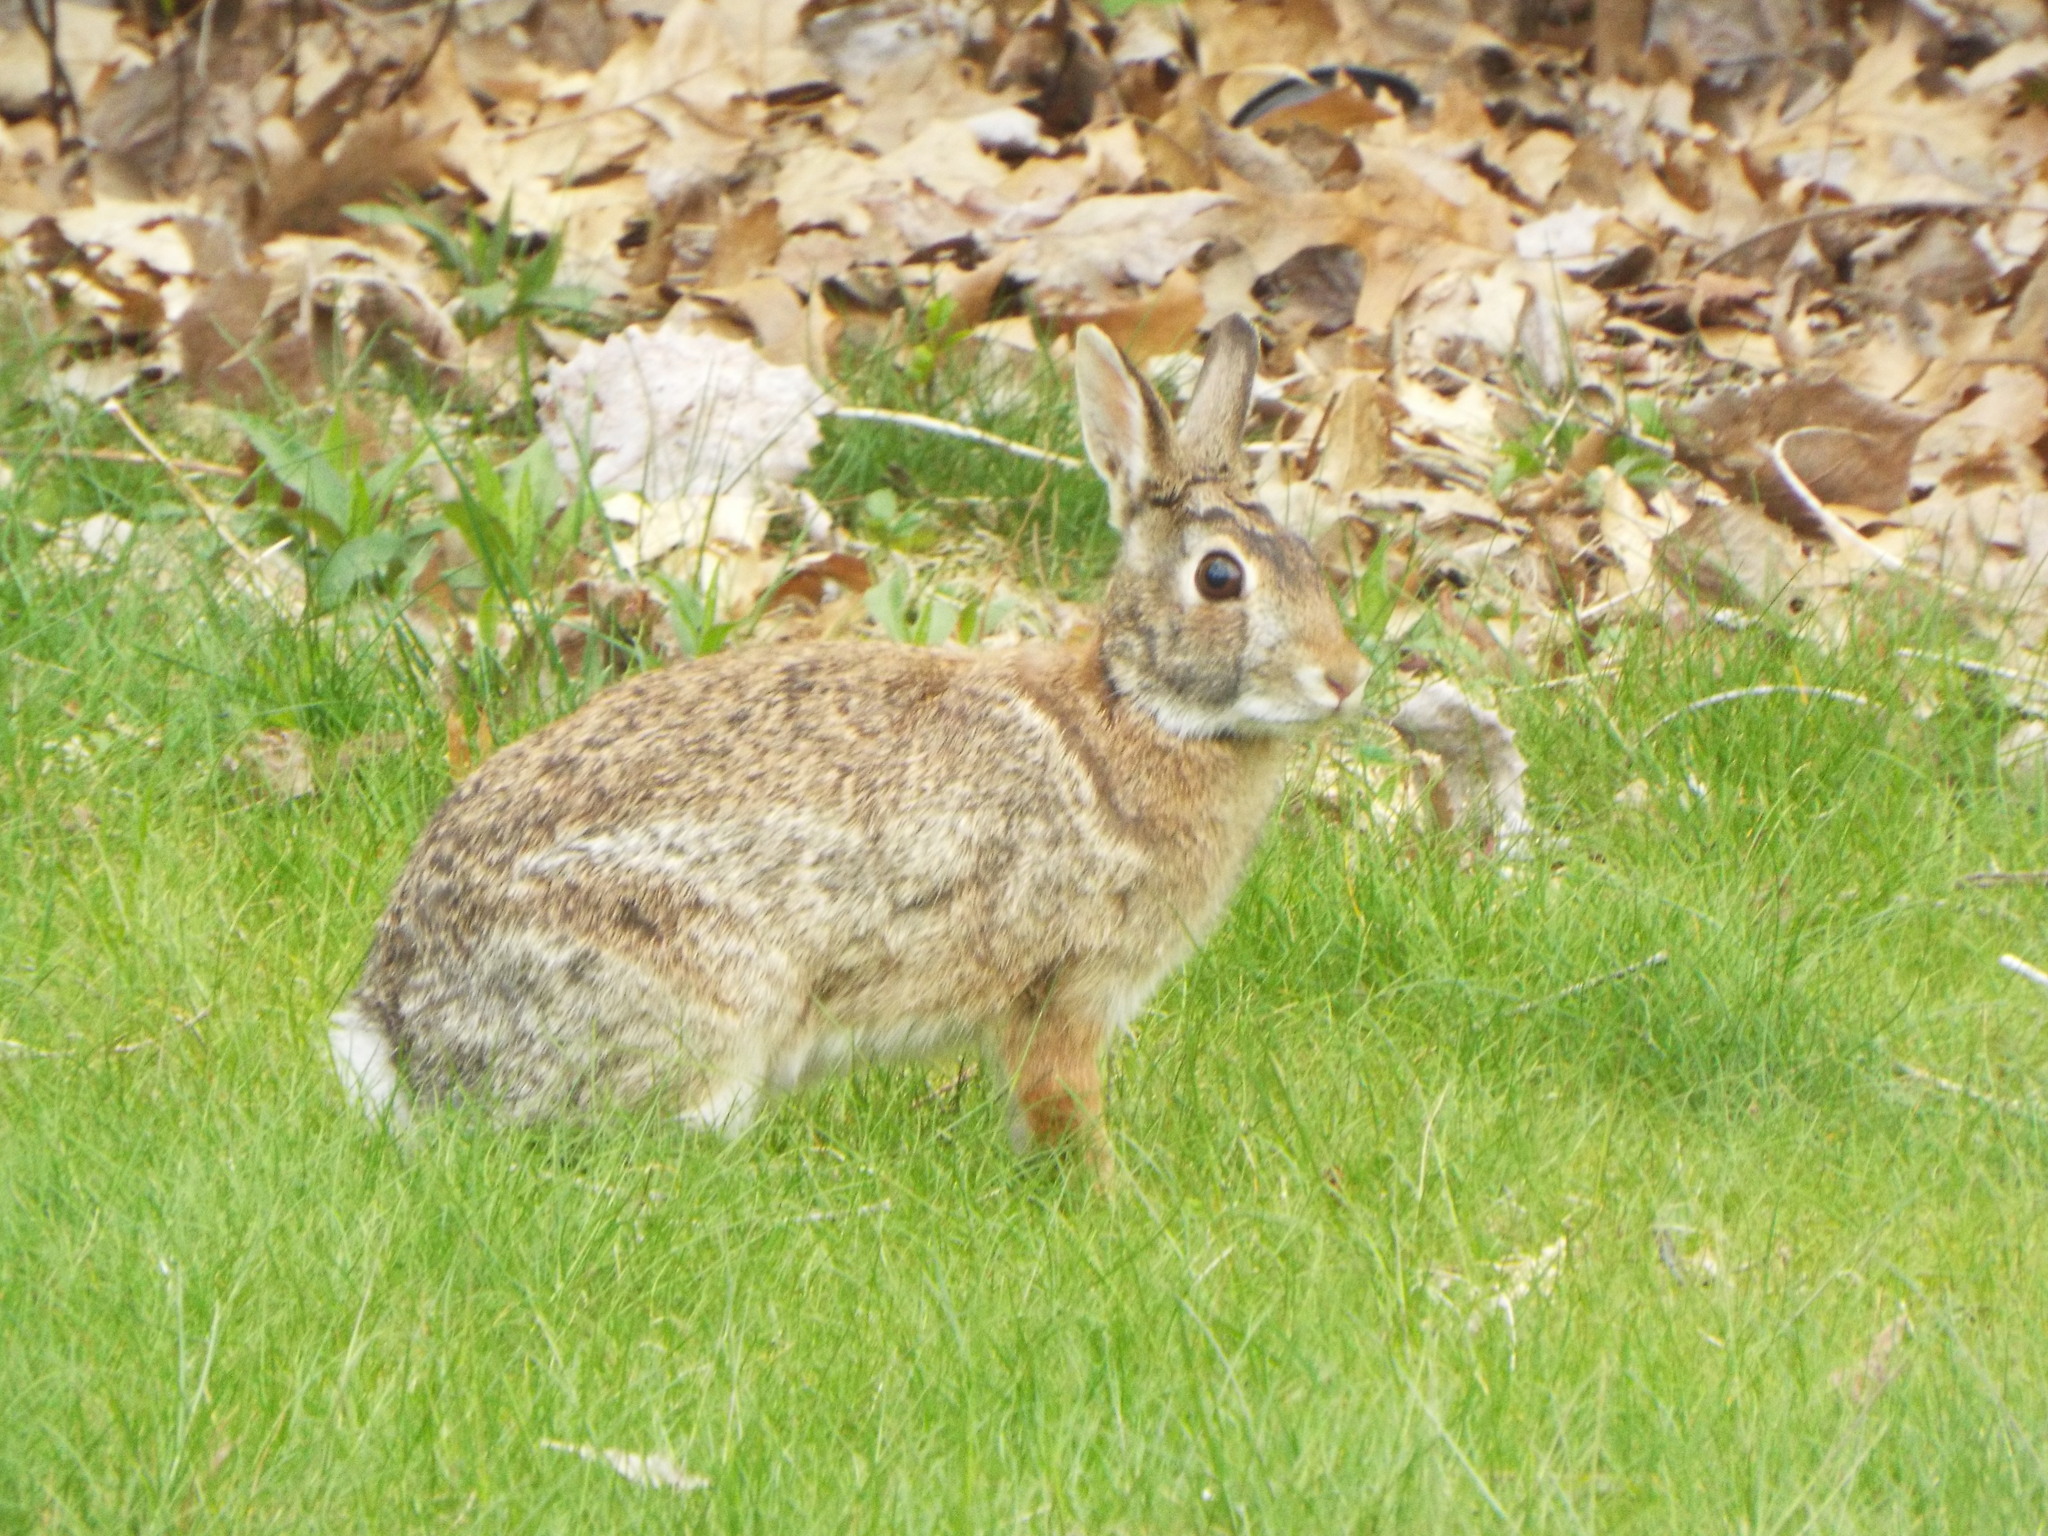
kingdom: Animalia
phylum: Chordata
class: Mammalia
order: Lagomorpha
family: Leporidae
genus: Sylvilagus
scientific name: Sylvilagus floridanus
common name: Eastern cottontail
